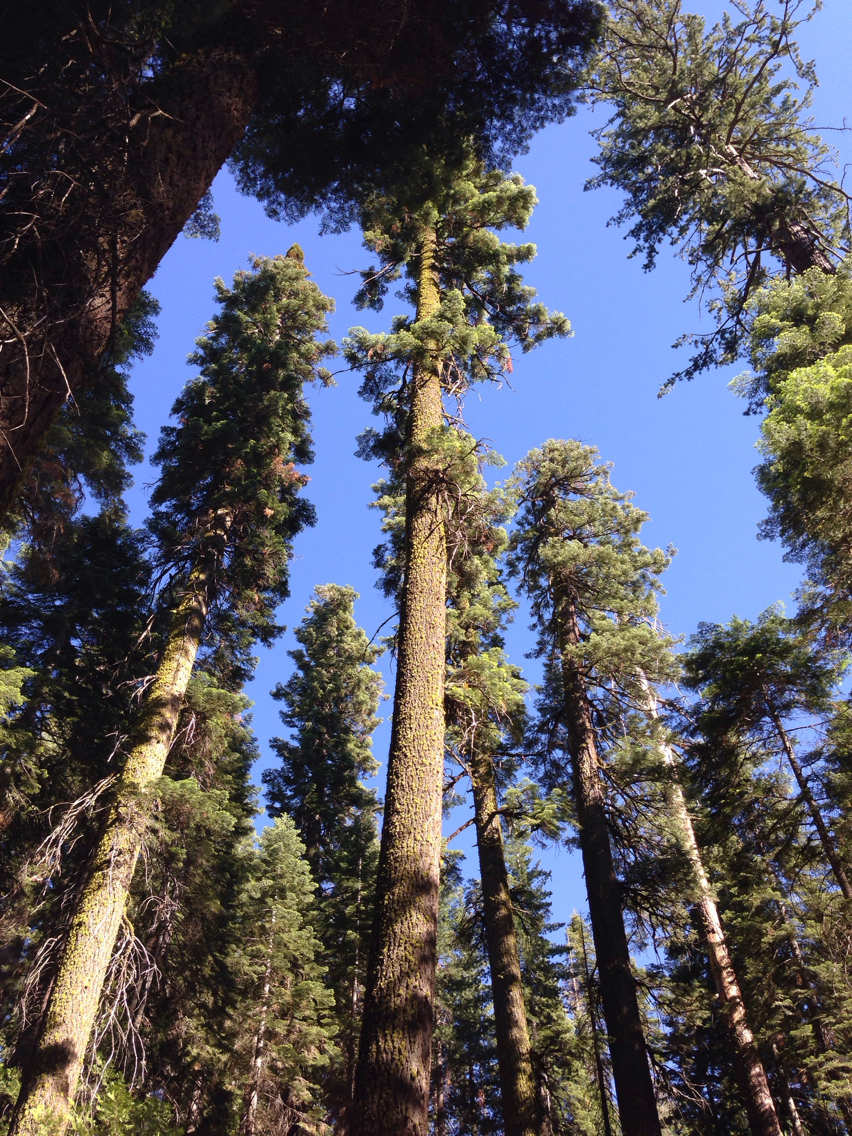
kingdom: Plantae
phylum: Tracheophyta
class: Pinopsida
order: Pinales
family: Pinaceae
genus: Abies
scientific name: Abies concolor
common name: Colorado fir
